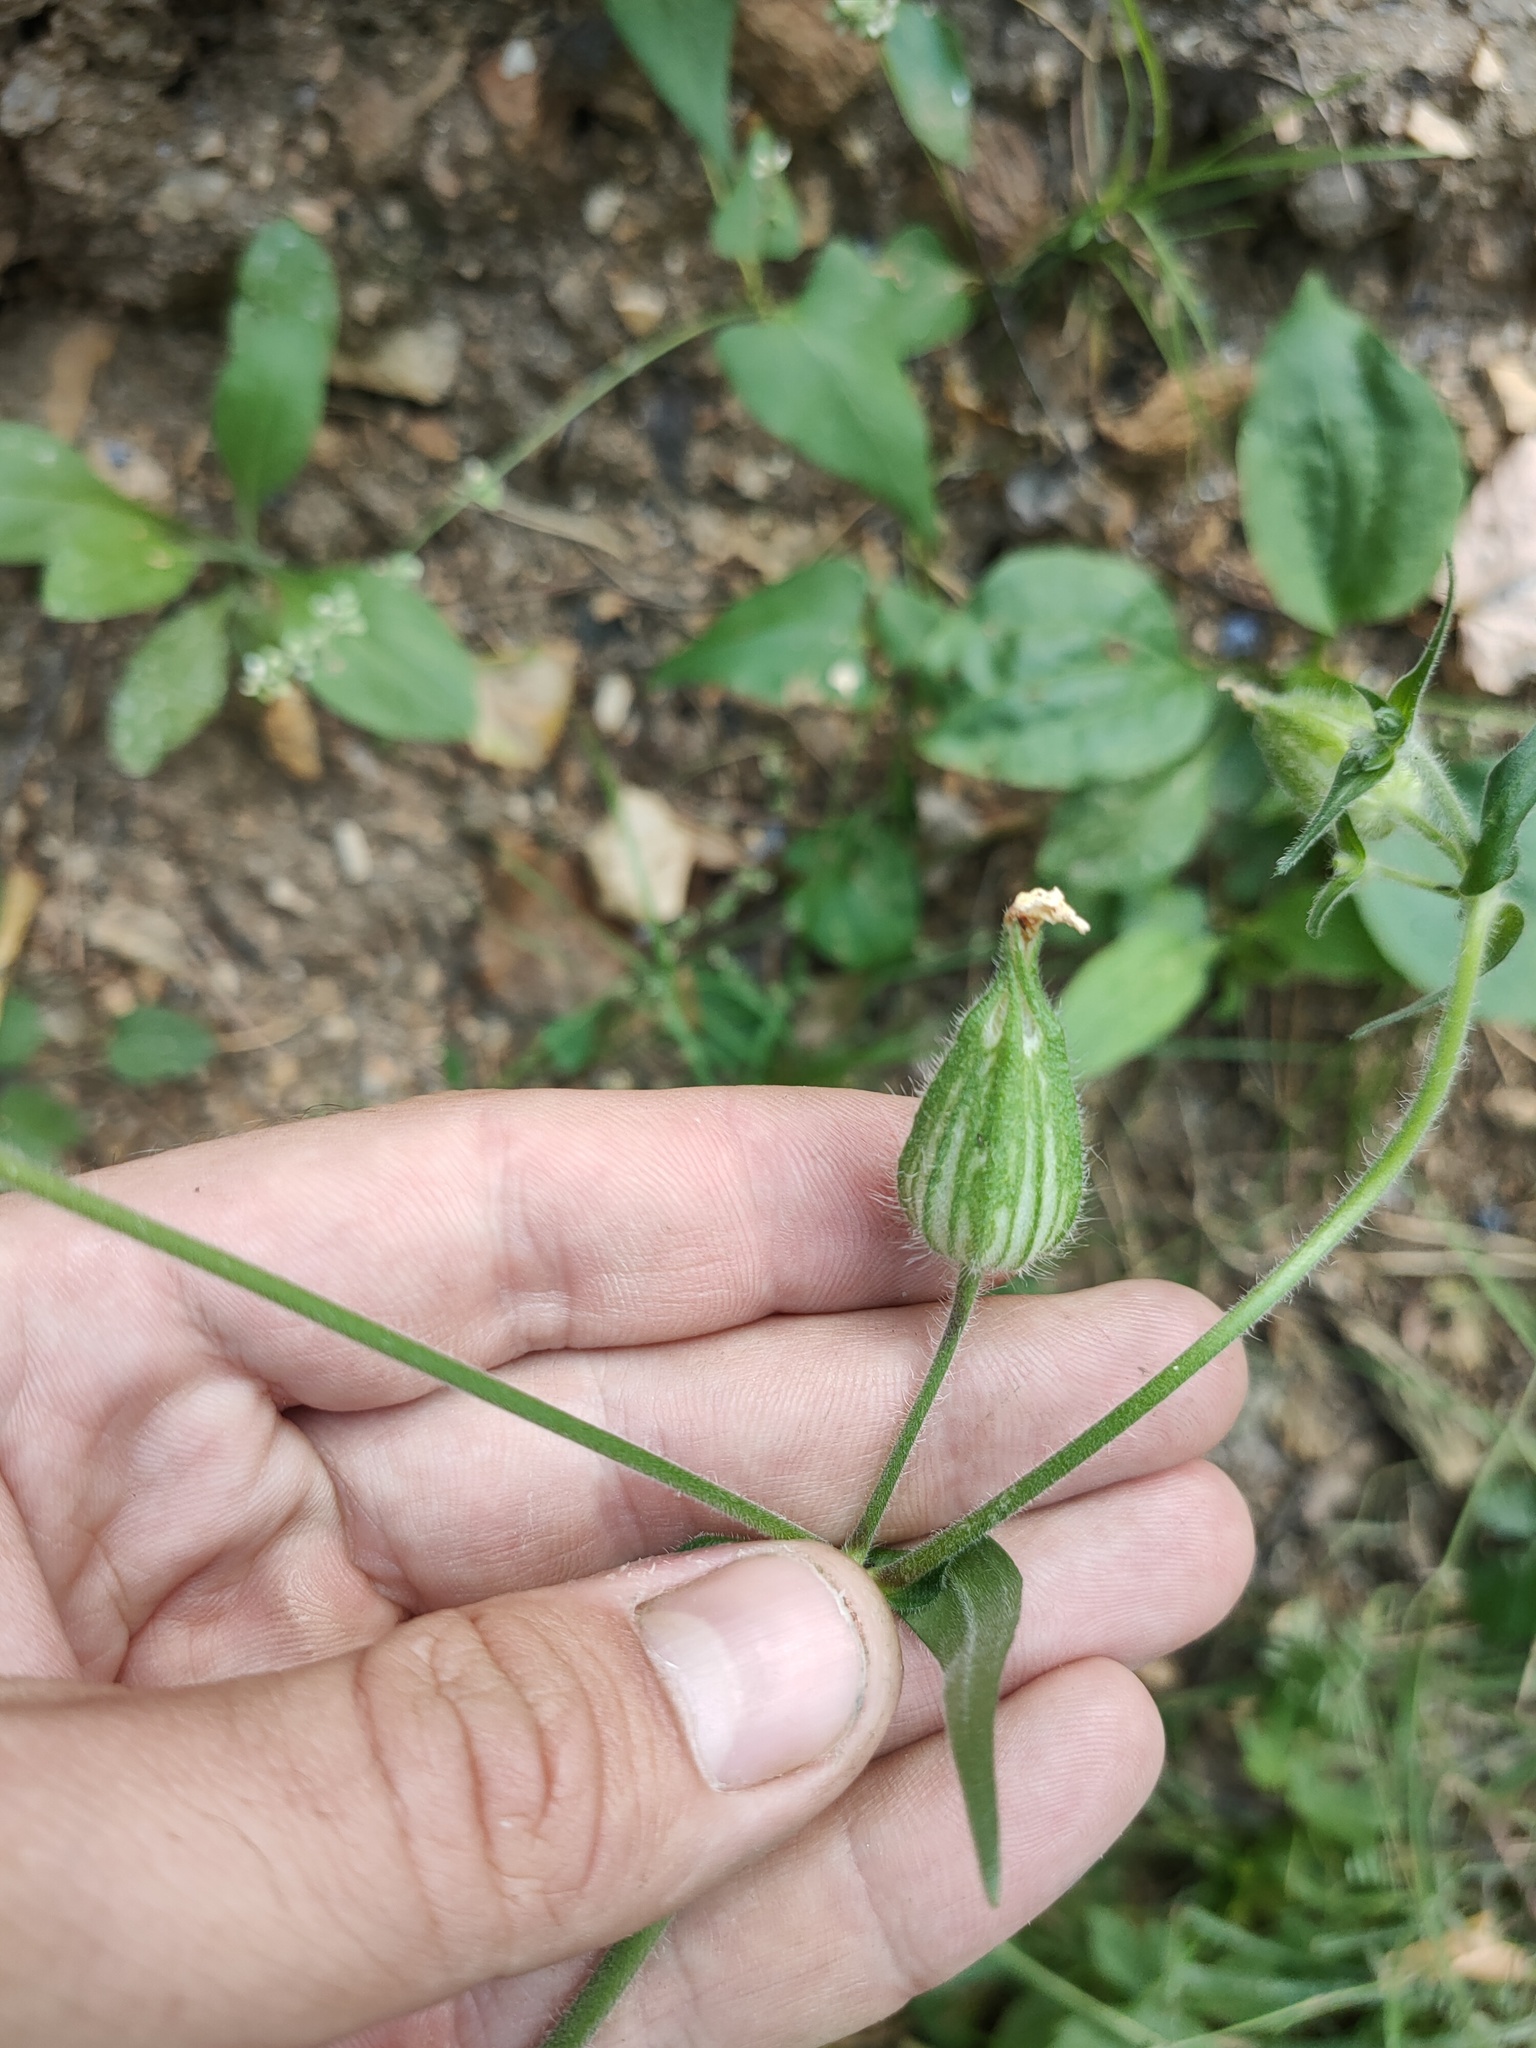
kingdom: Plantae
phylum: Tracheophyta
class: Magnoliopsida
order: Caryophyllales
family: Caryophyllaceae
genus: Silene
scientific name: Silene latifolia
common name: White campion
